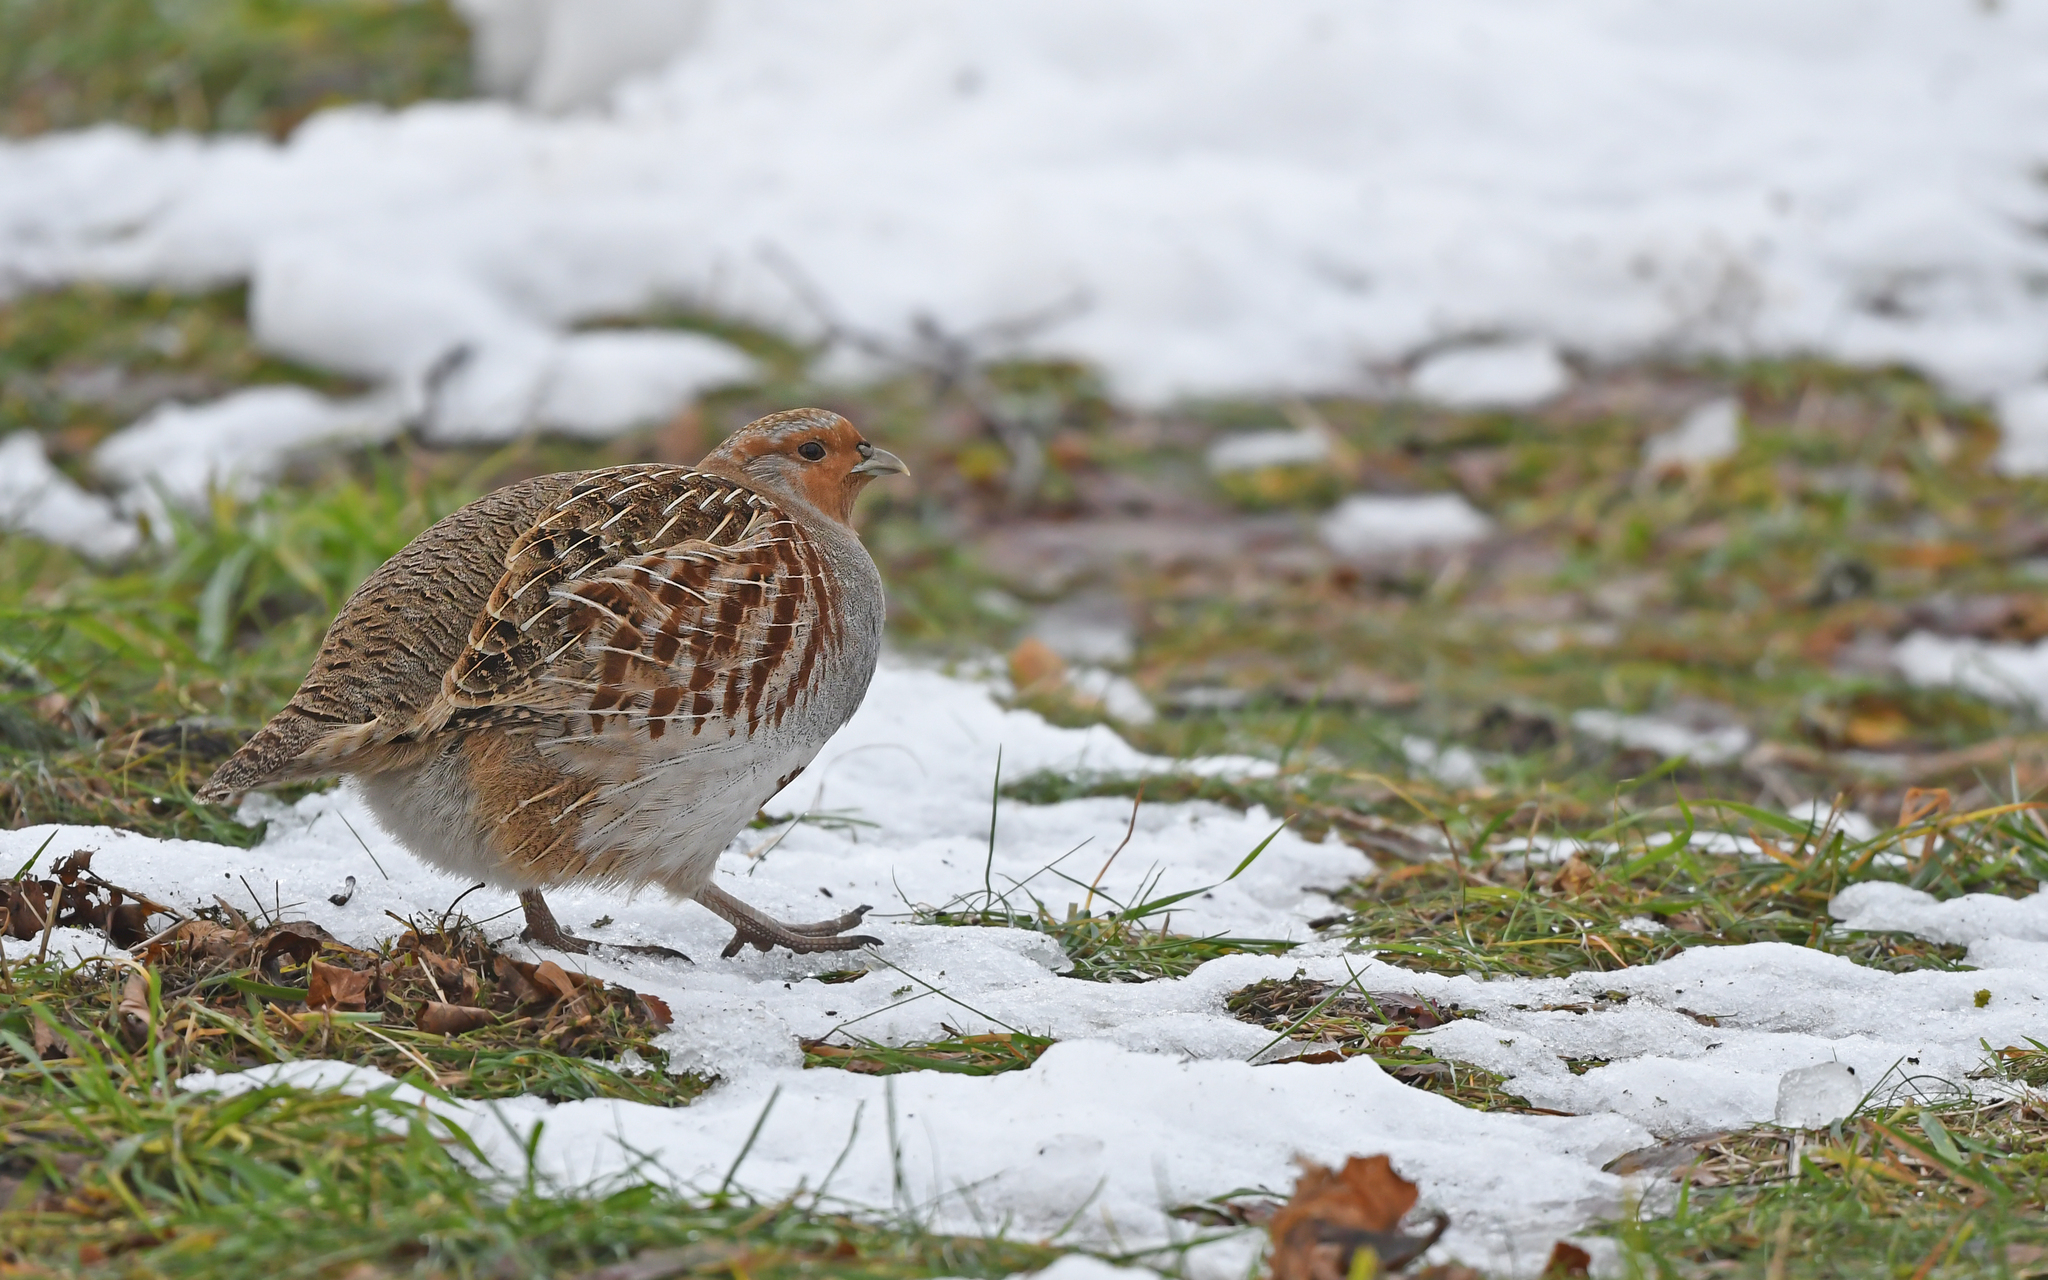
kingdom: Animalia
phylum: Chordata
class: Aves
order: Galliformes
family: Phasianidae
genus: Perdix
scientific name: Perdix perdix
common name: Grey partridge
